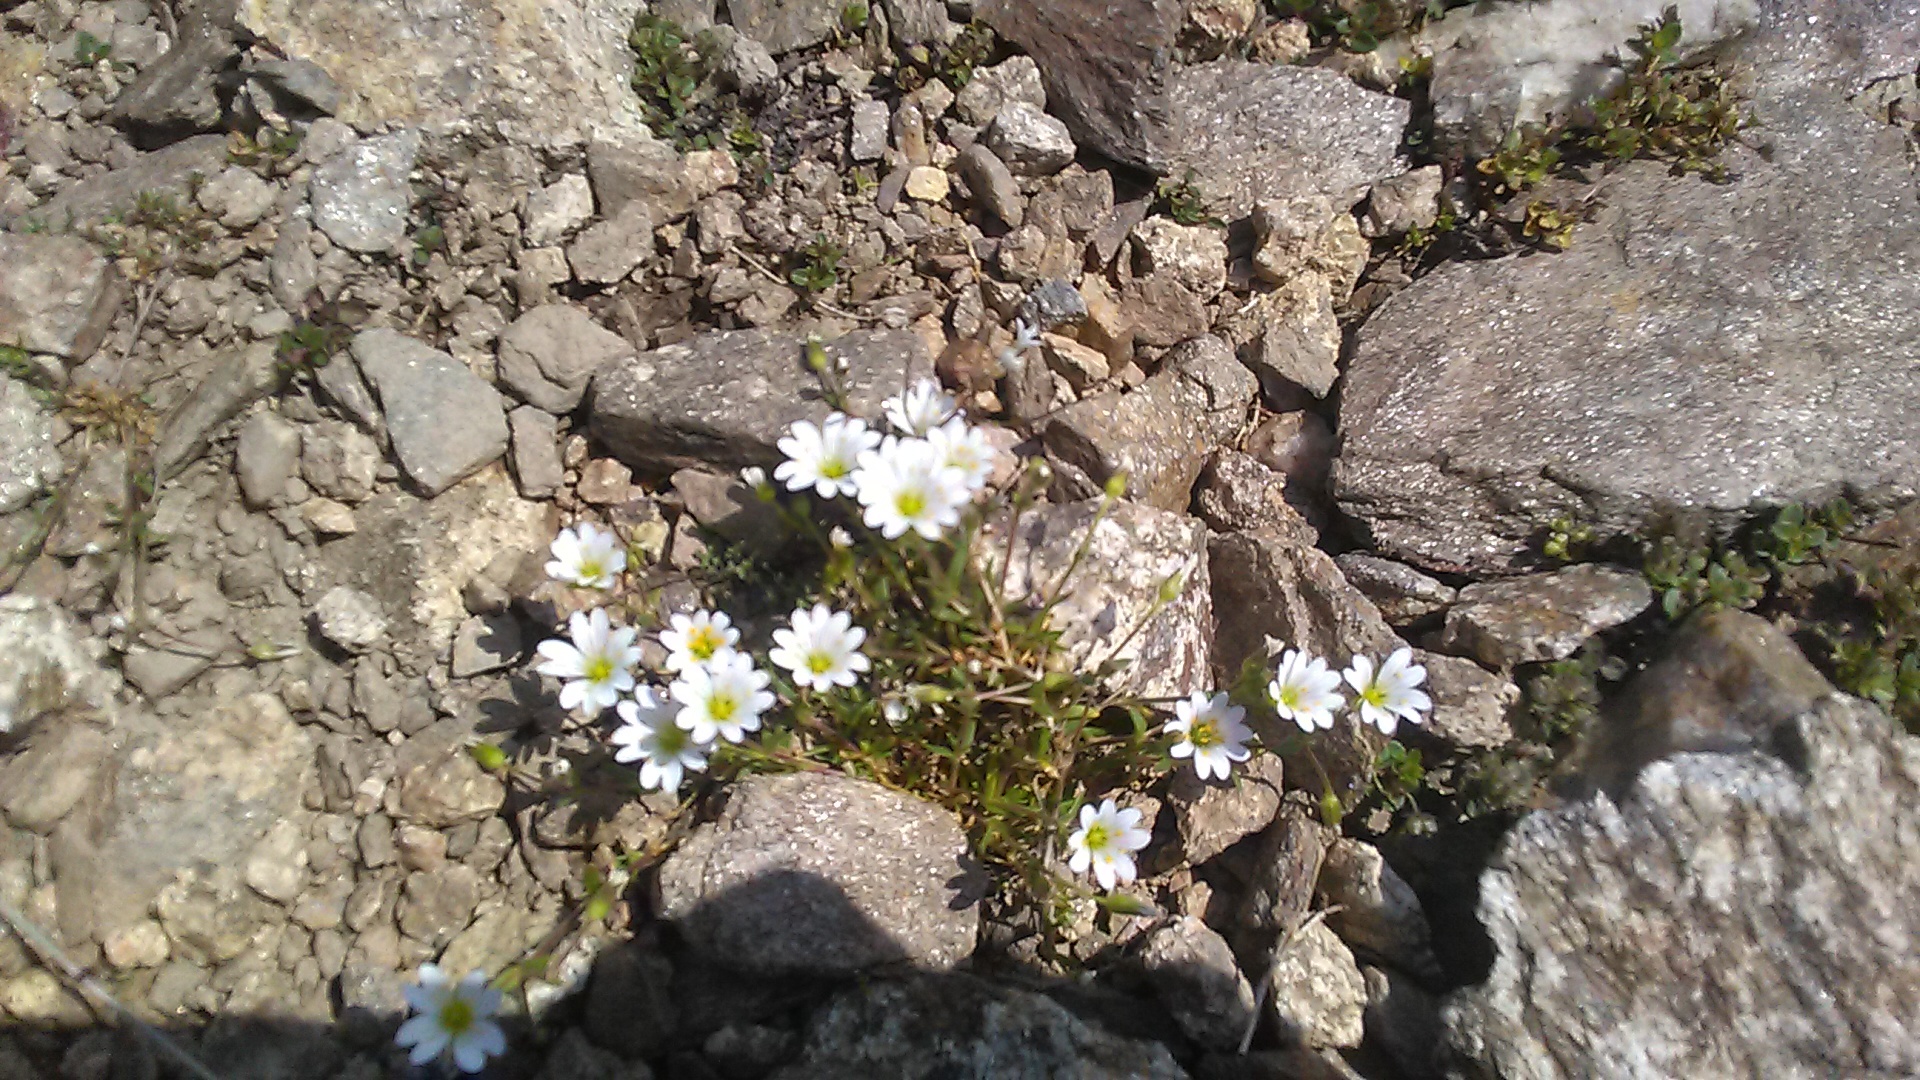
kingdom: Plantae
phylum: Tracheophyta
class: Magnoliopsida
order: Caryophyllales
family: Caryophyllaceae
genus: Dichodon
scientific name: Dichodon cerastoides
